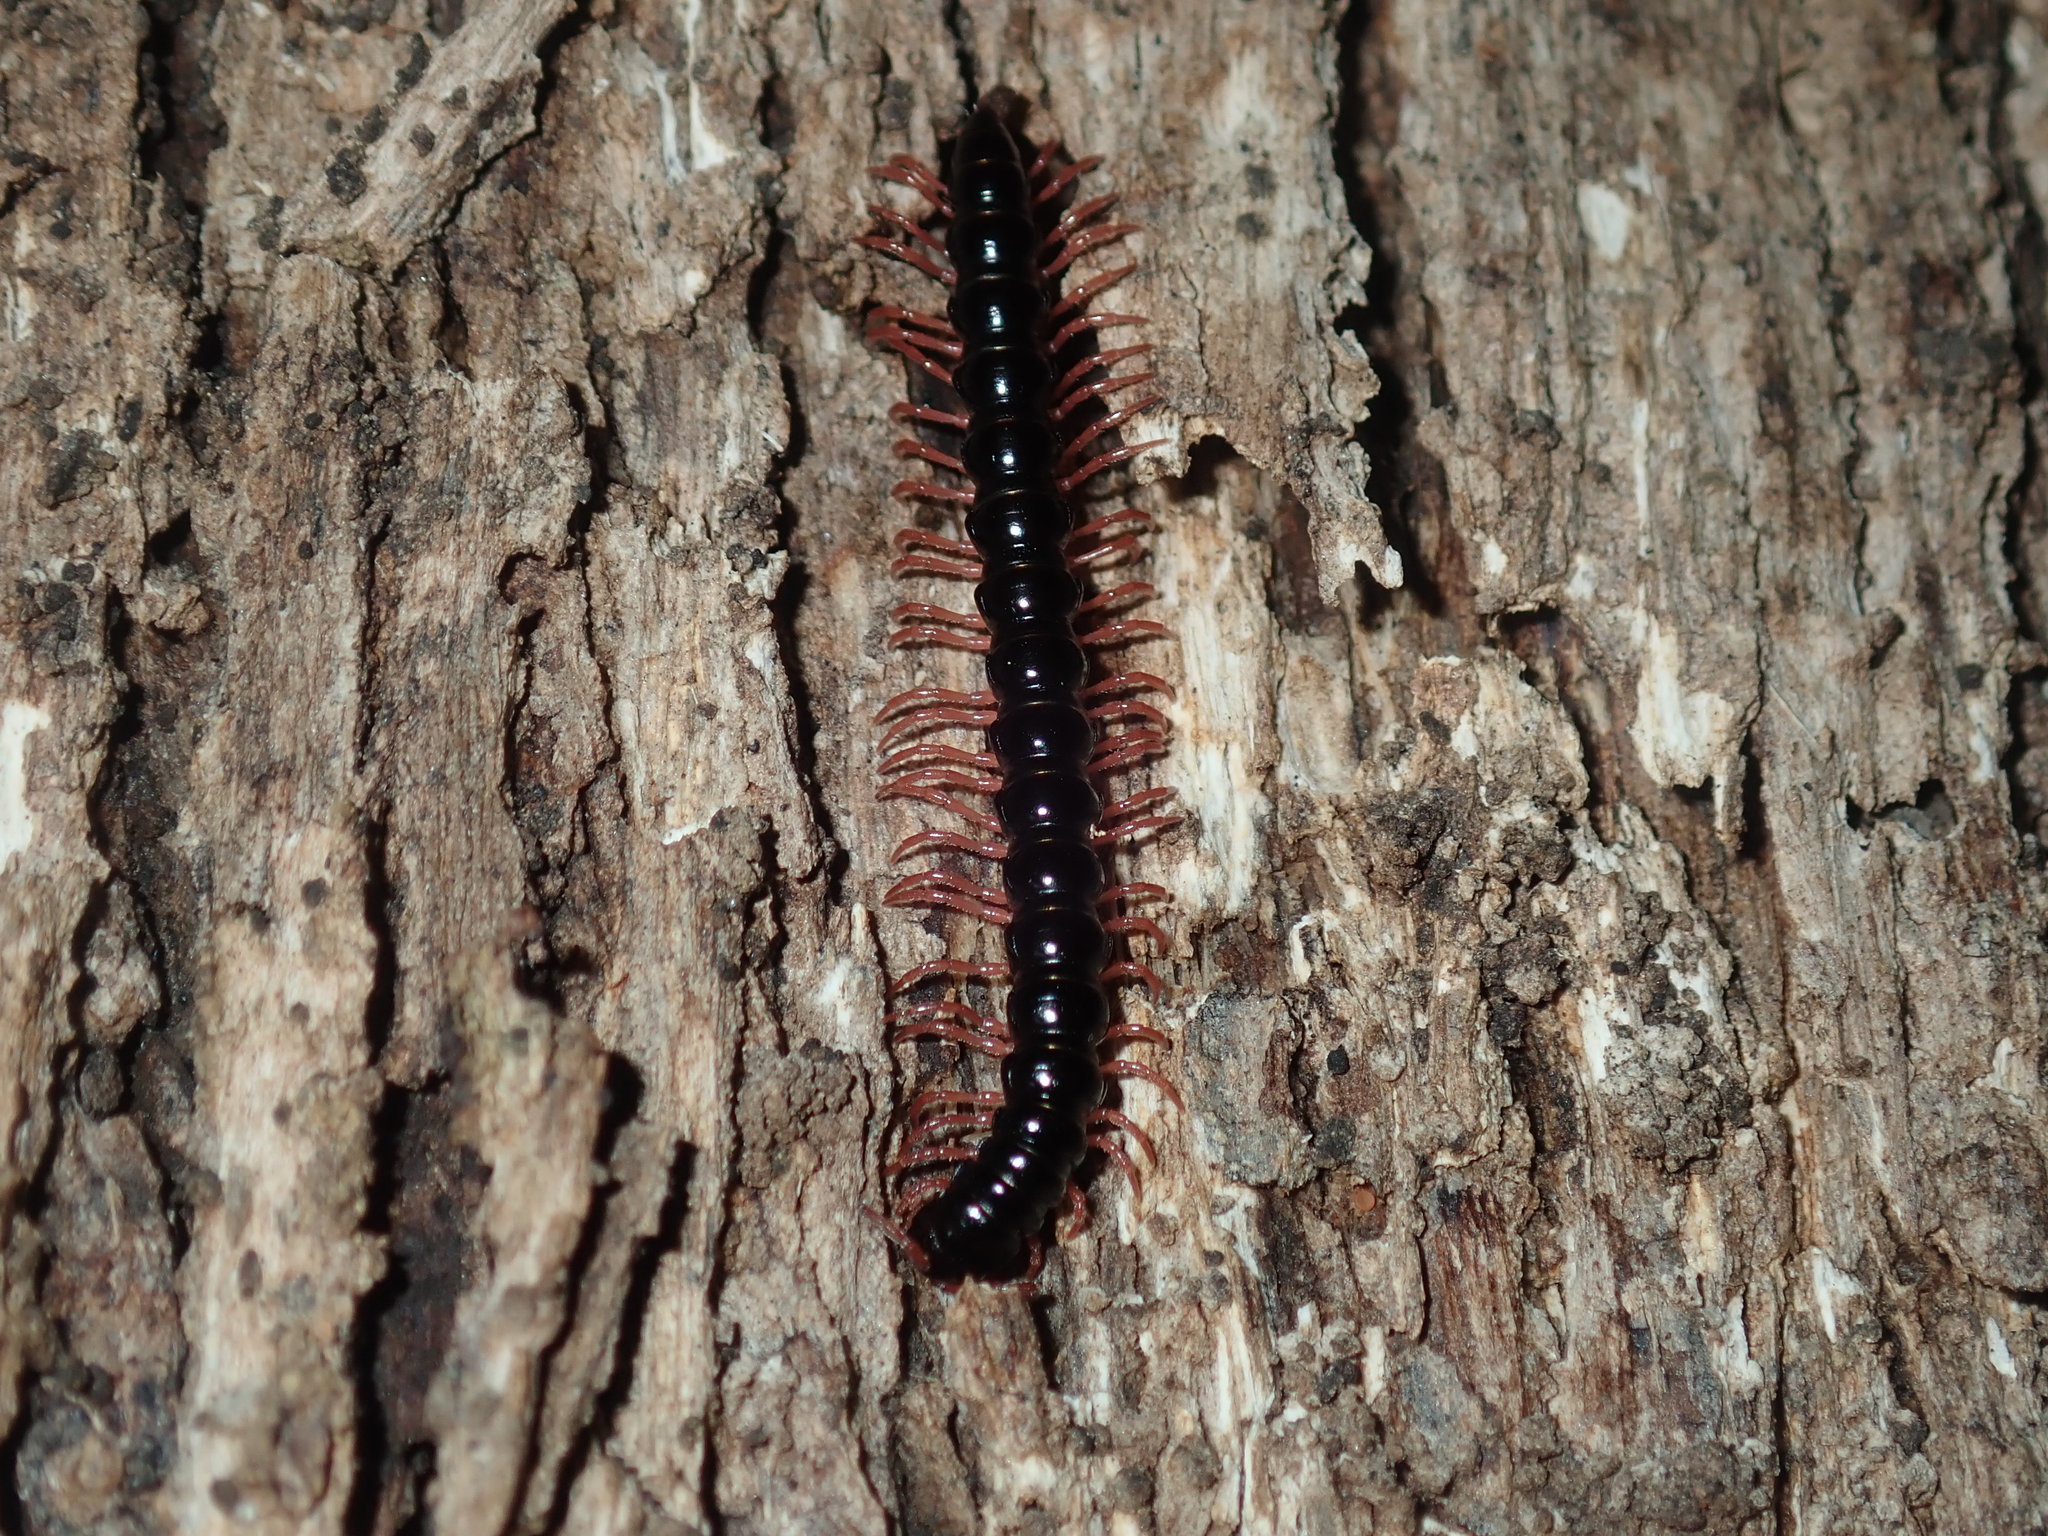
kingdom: Animalia
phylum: Arthropoda
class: Diplopoda
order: Polydesmida
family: Paradoxosomatidae
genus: Heterocladosoma
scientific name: Heterocladosoma
